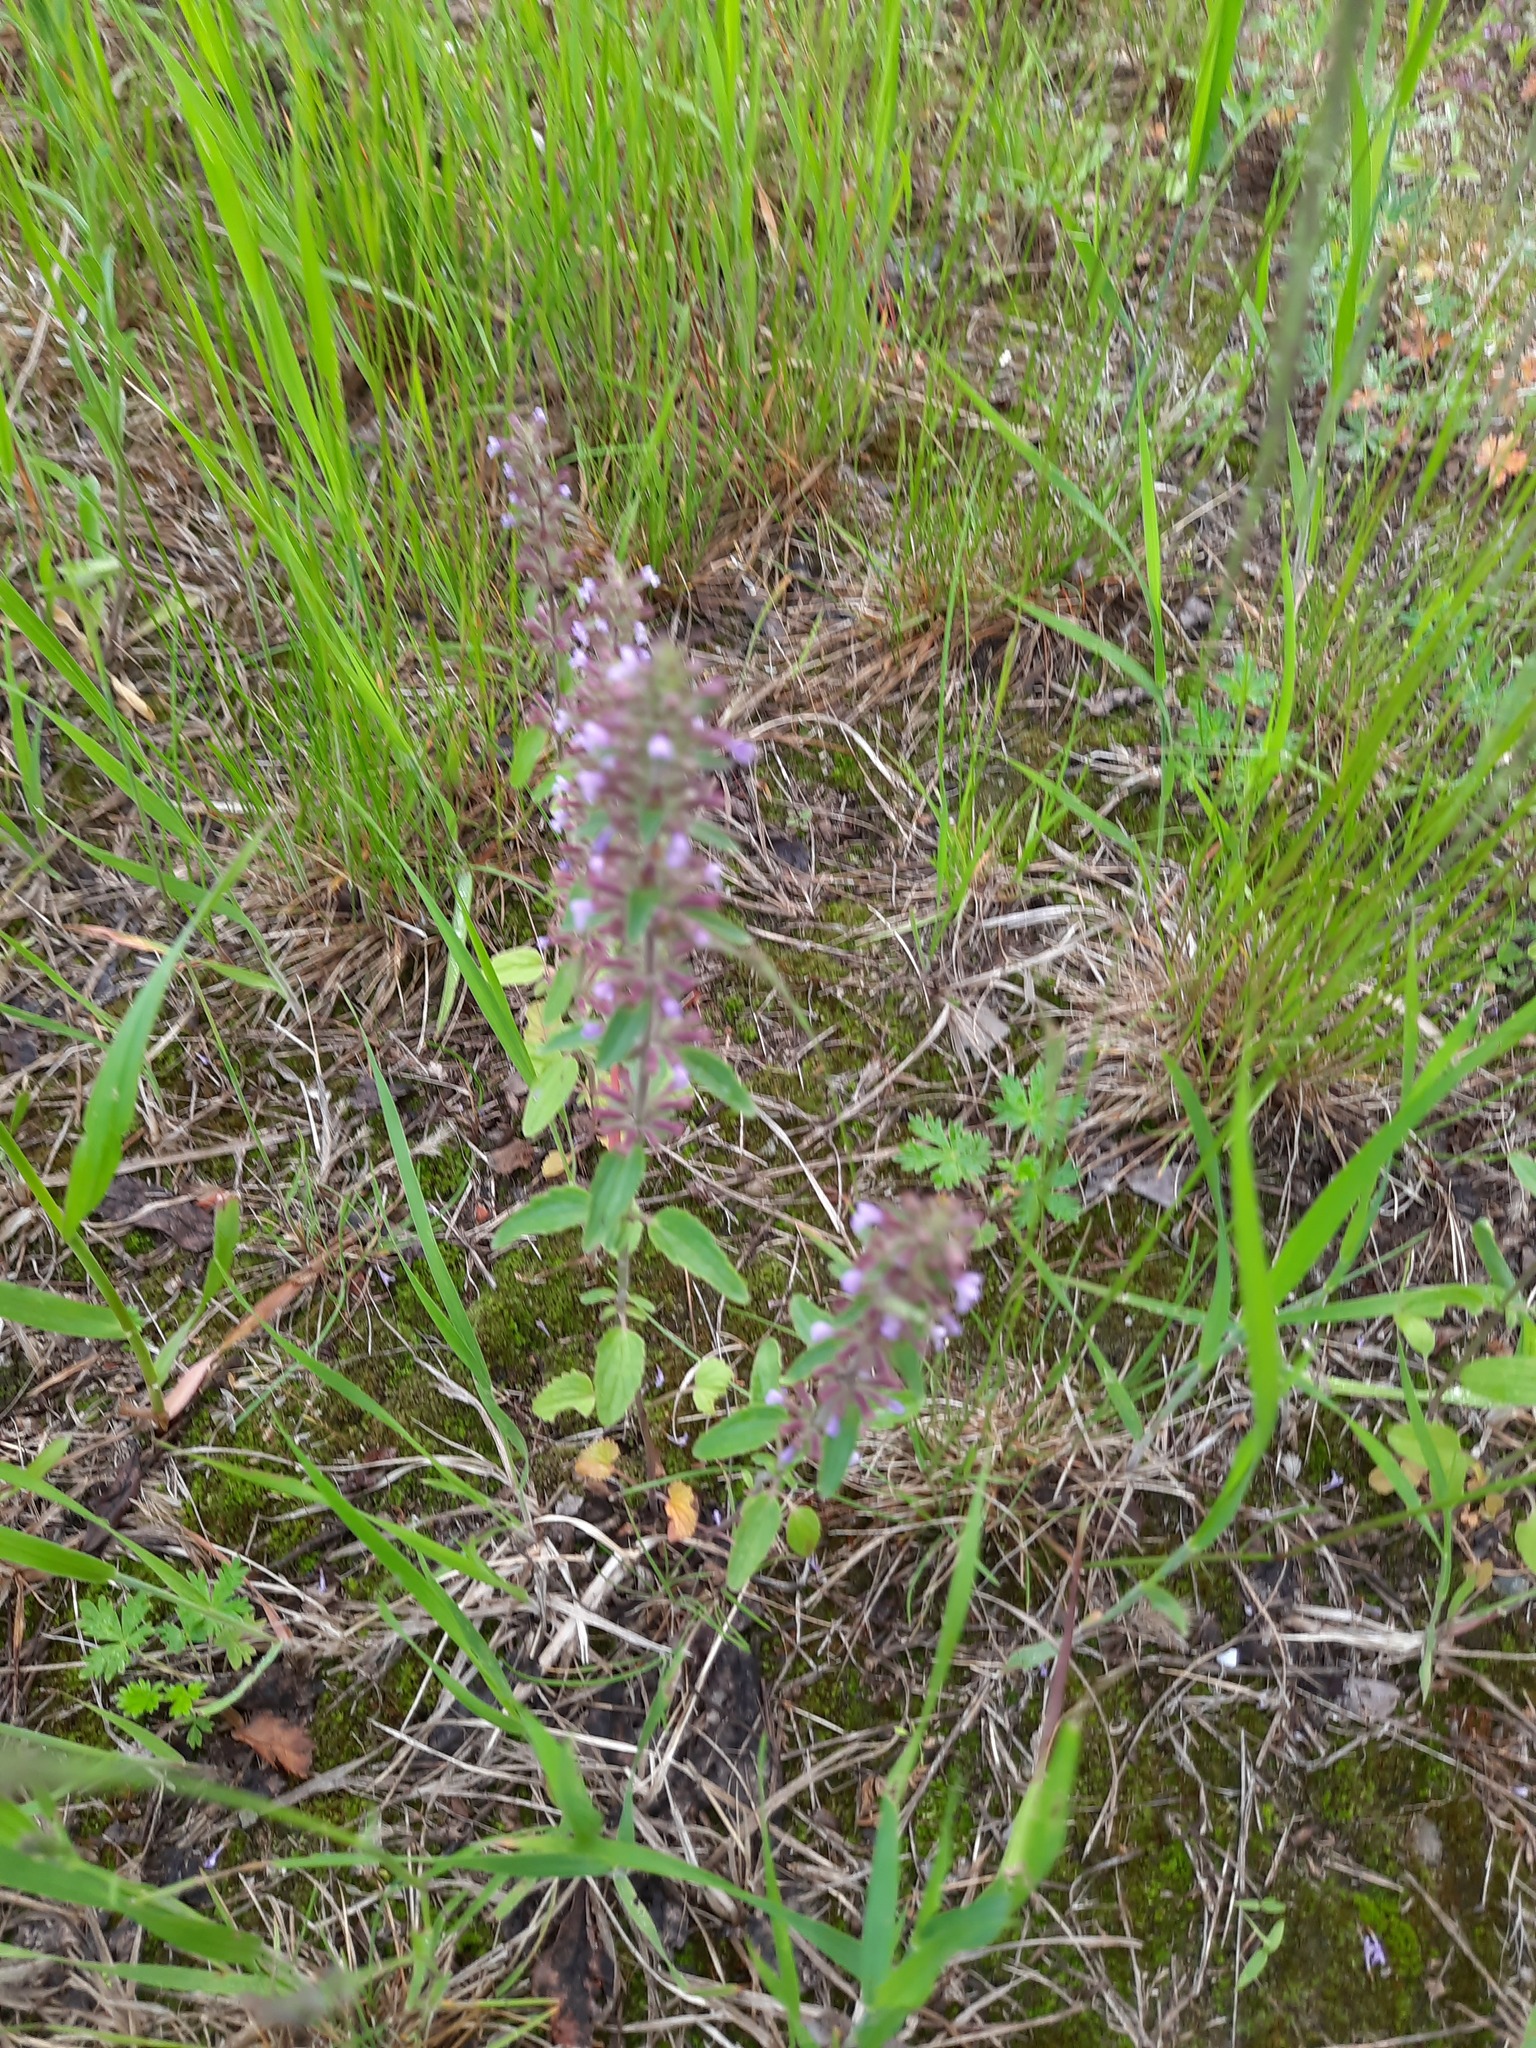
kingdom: Plantae
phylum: Tracheophyta
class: Magnoliopsida
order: Lamiales
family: Lamiaceae
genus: Dracocephalum
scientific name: Dracocephalum thymiflorum
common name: Thymeleaf dragonhead
